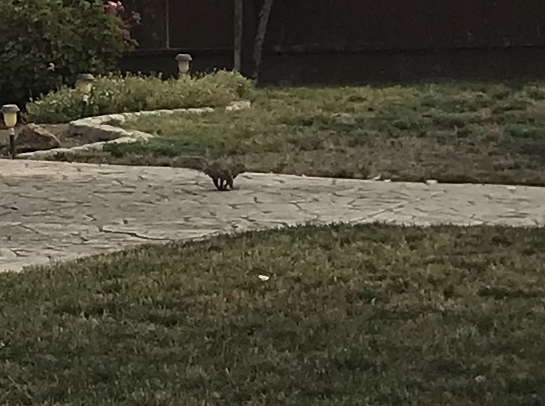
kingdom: Animalia
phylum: Chordata
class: Mammalia
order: Rodentia
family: Sciuridae
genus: Sciurus
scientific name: Sciurus carolinensis
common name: Eastern gray squirrel
